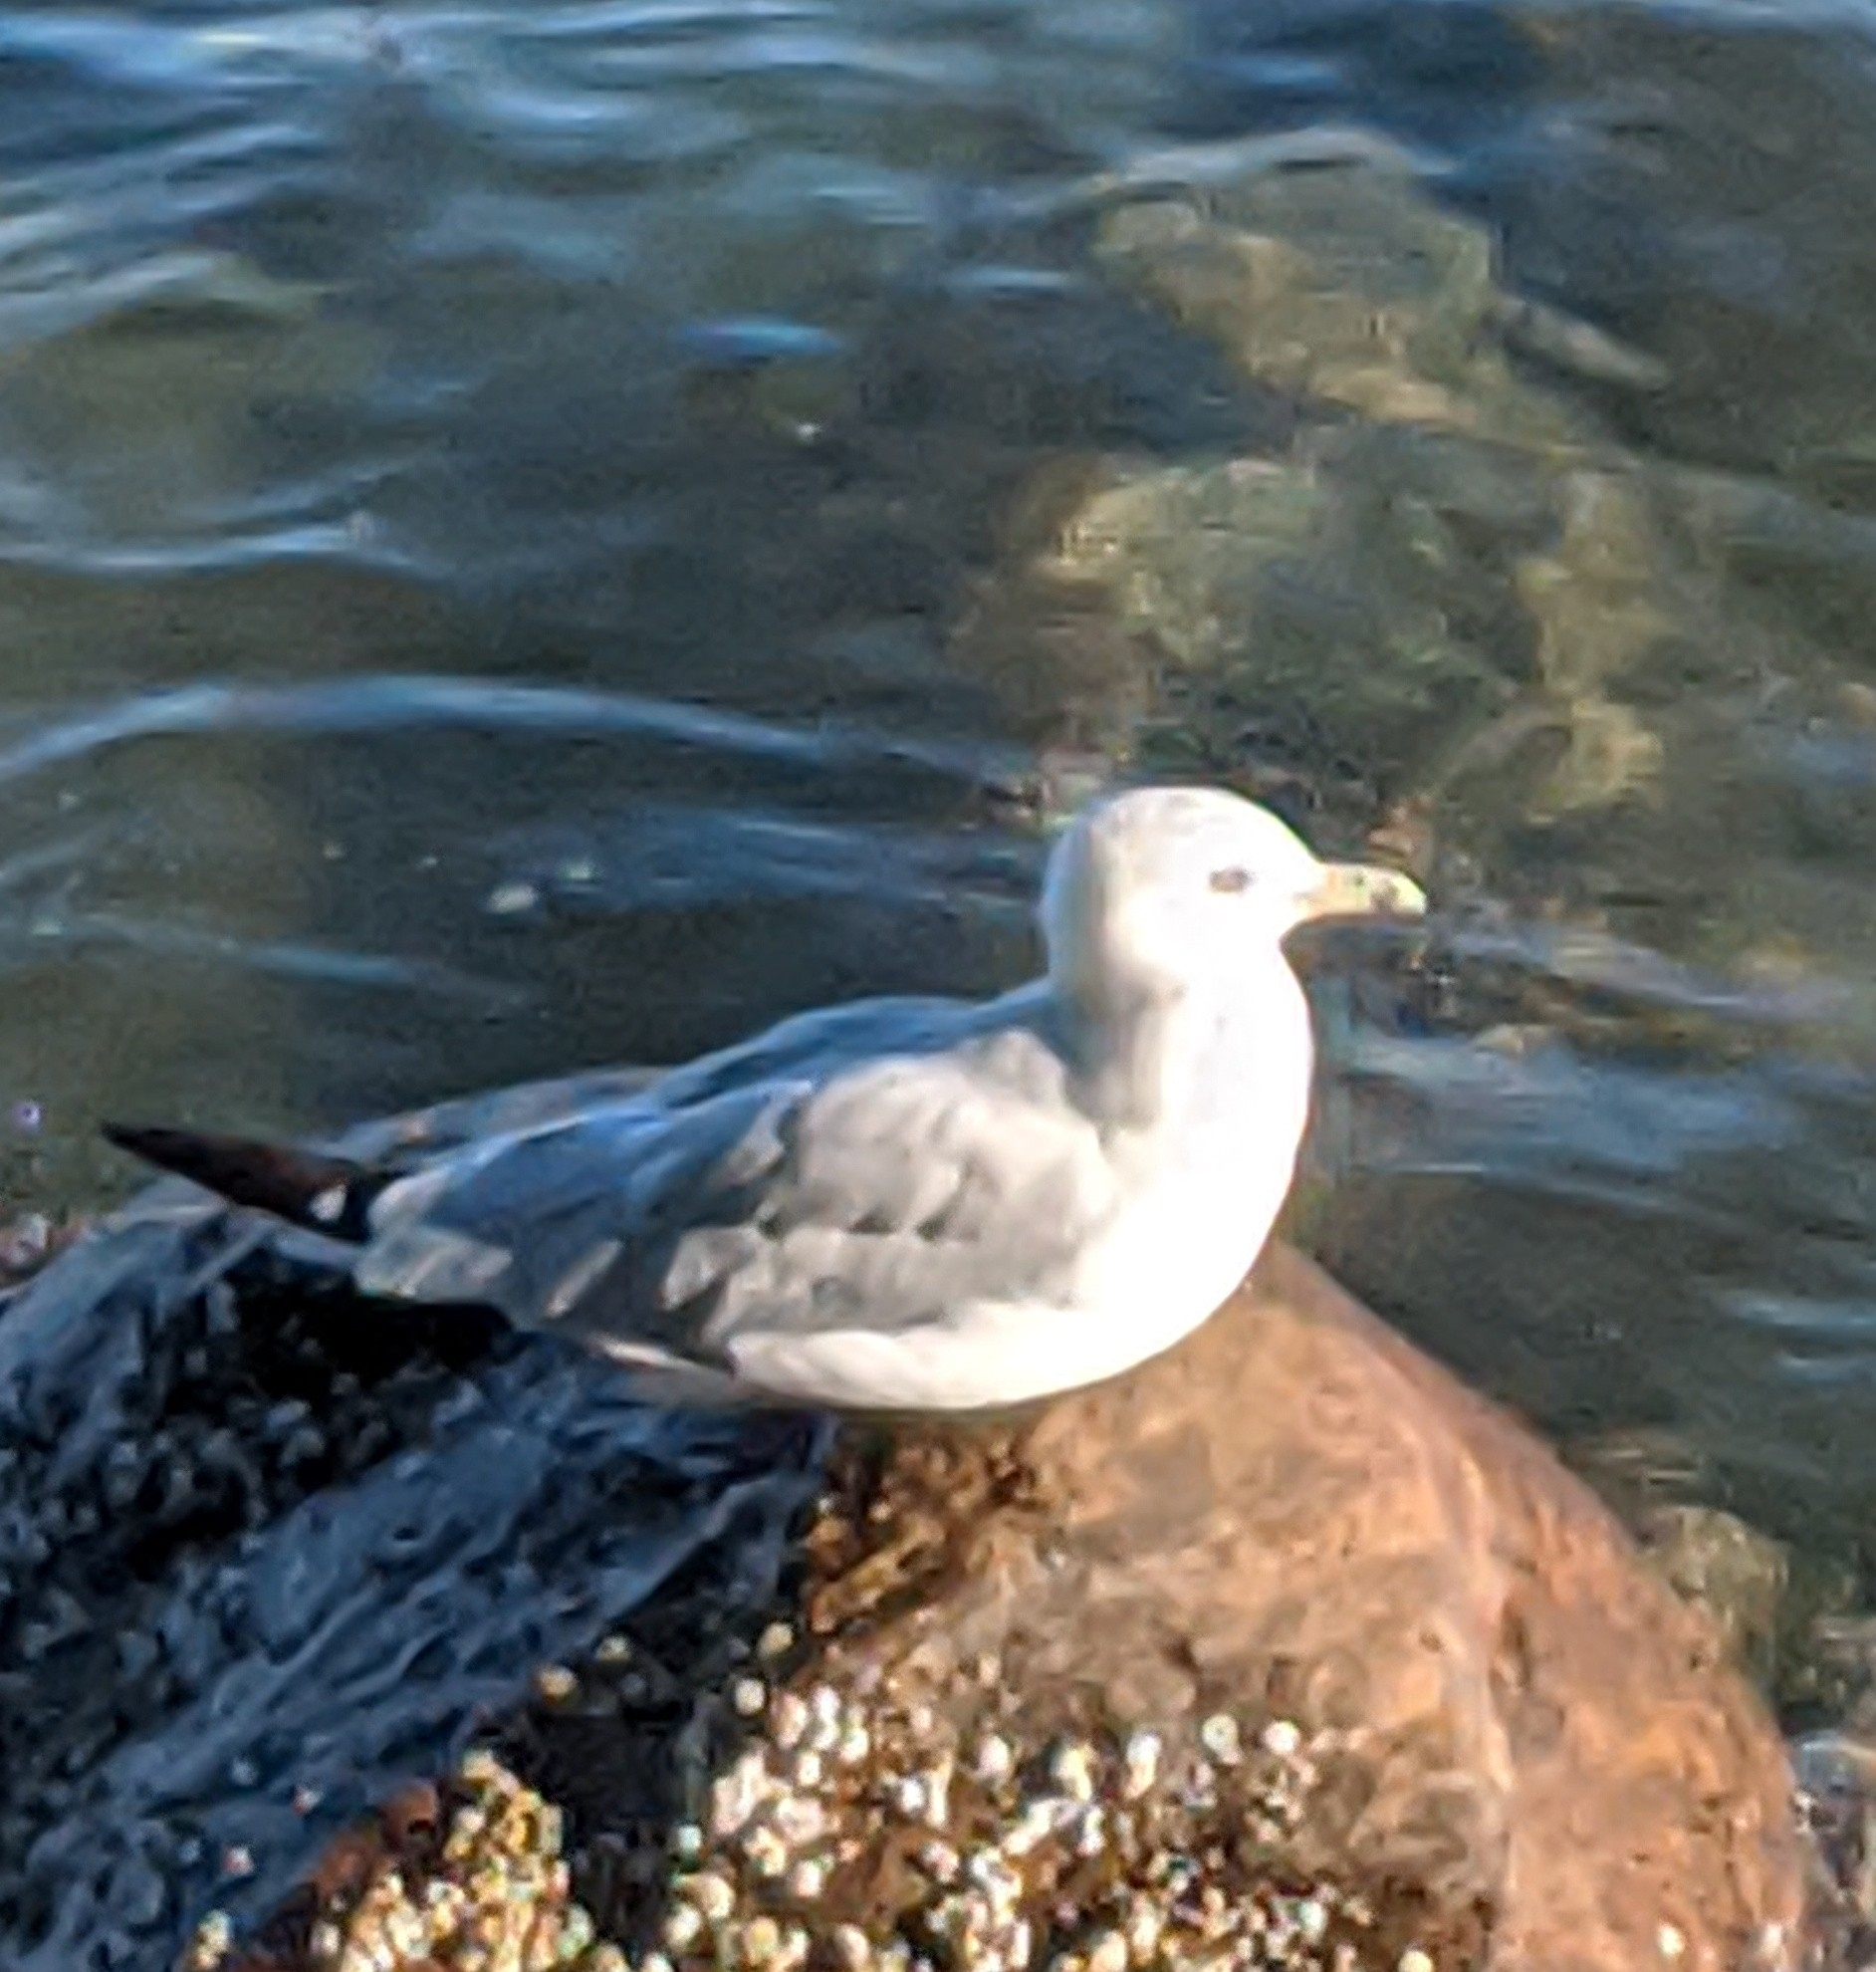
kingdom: Animalia
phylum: Chordata
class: Aves
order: Charadriiformes
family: Laridae
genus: Larus
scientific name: Larus delawarensis
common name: Ring-billed gull
